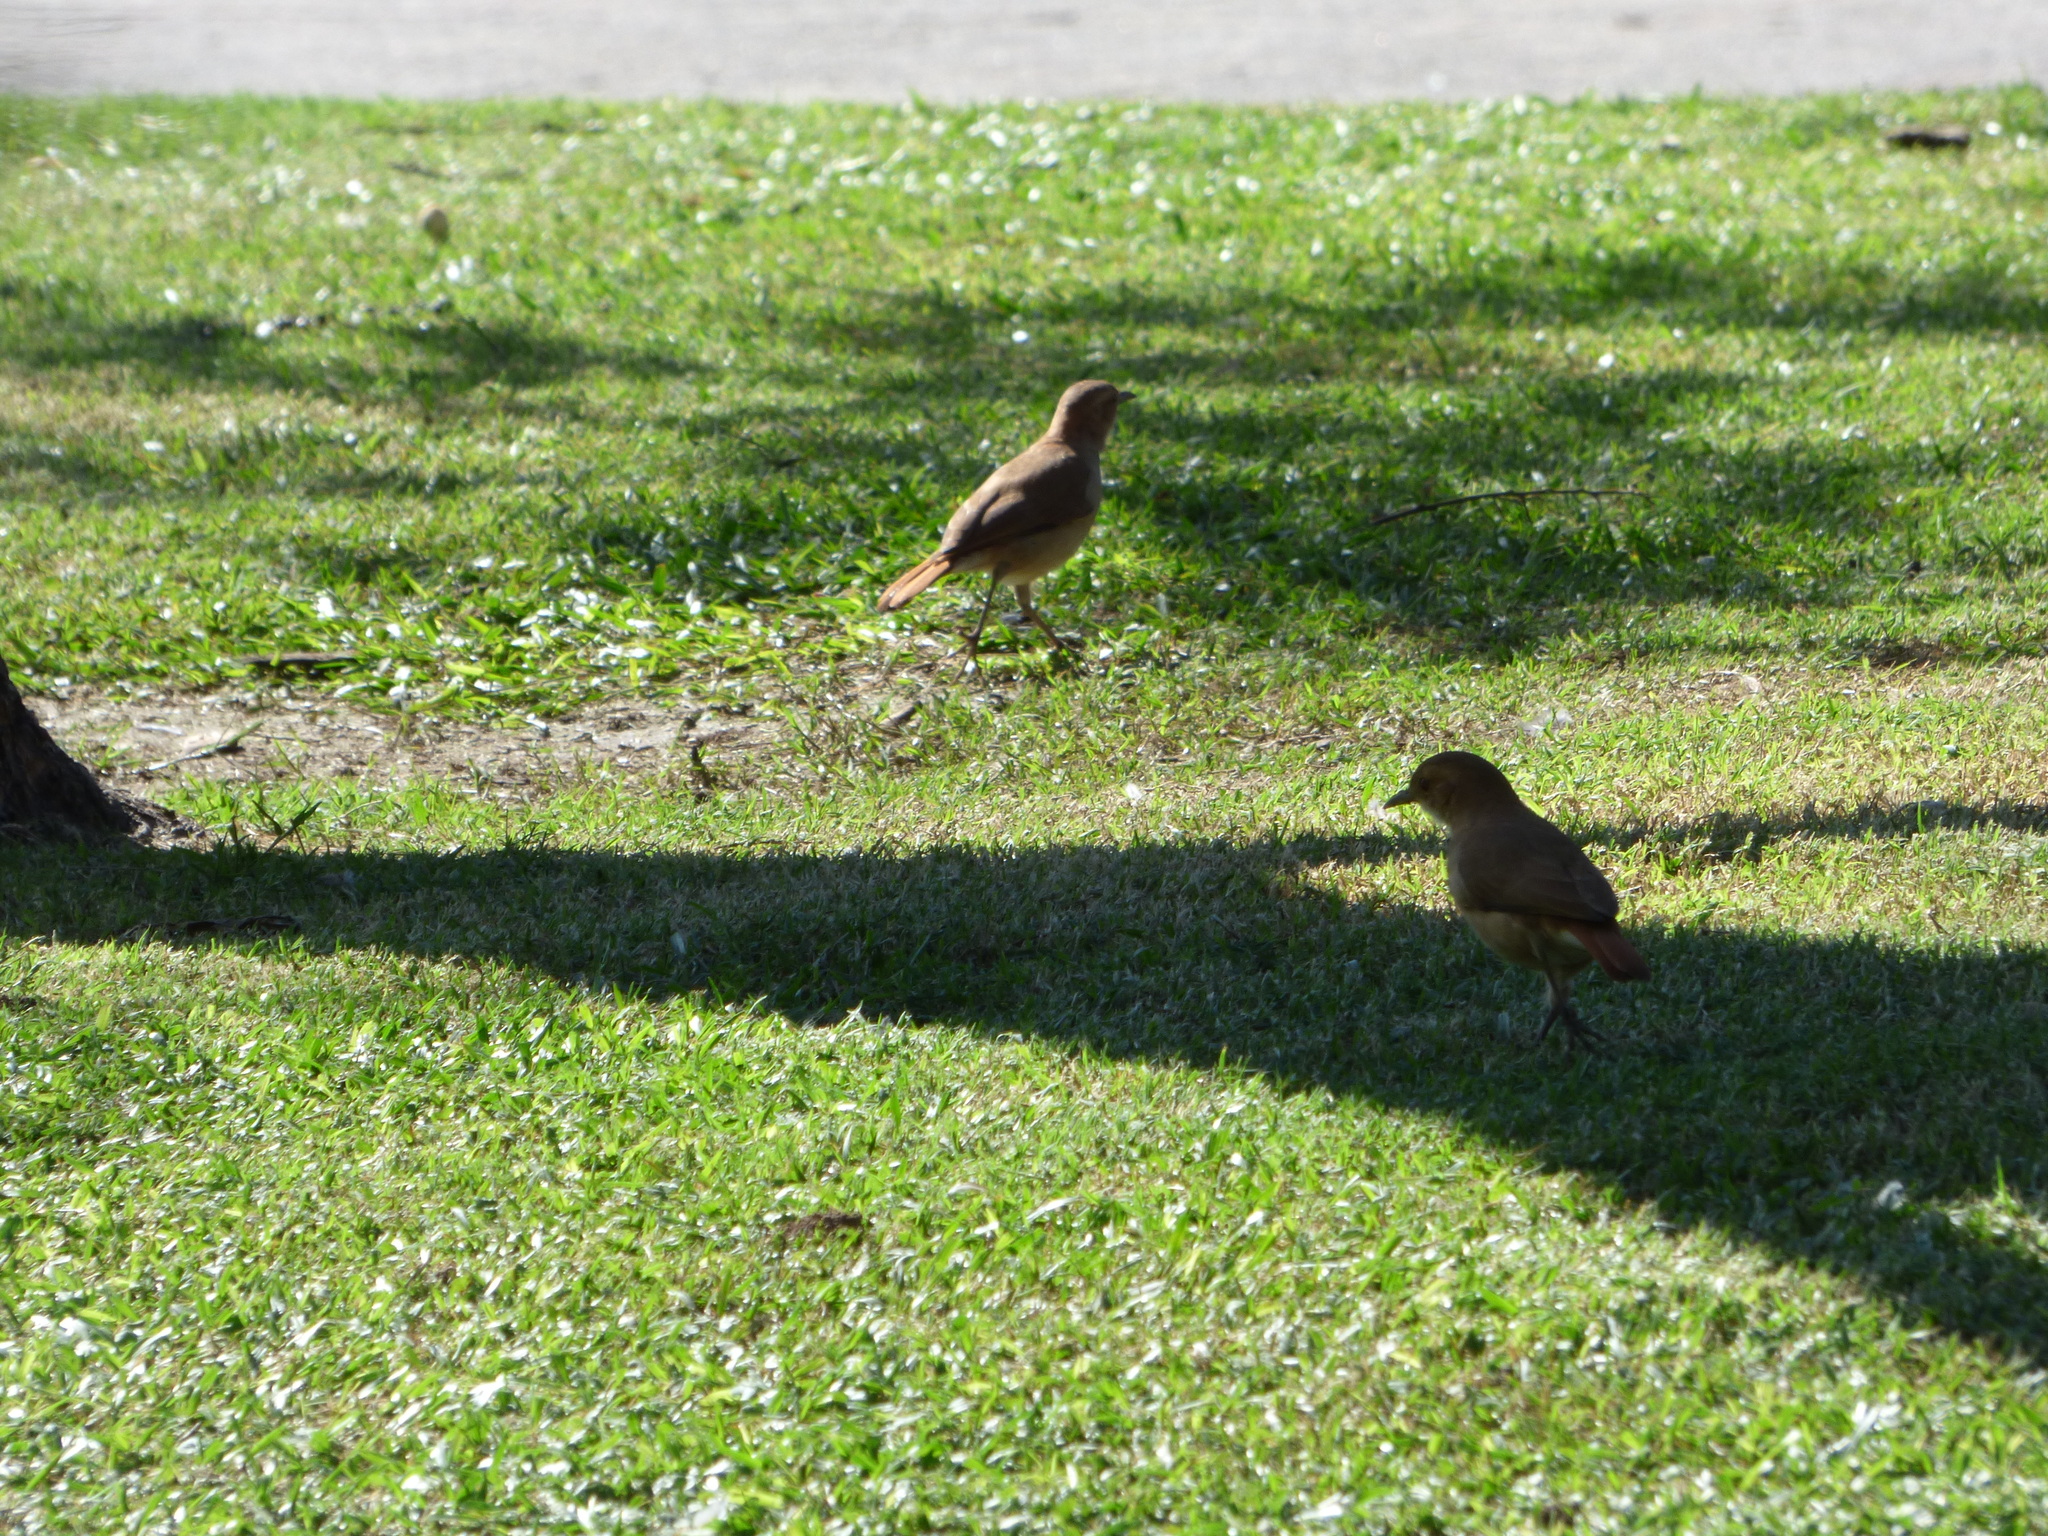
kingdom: Animalia
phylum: Chordata
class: Aves
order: Passeriformes
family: Furnariidae
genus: Furnarius
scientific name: Furnarius rufus
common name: Rufous hornero
